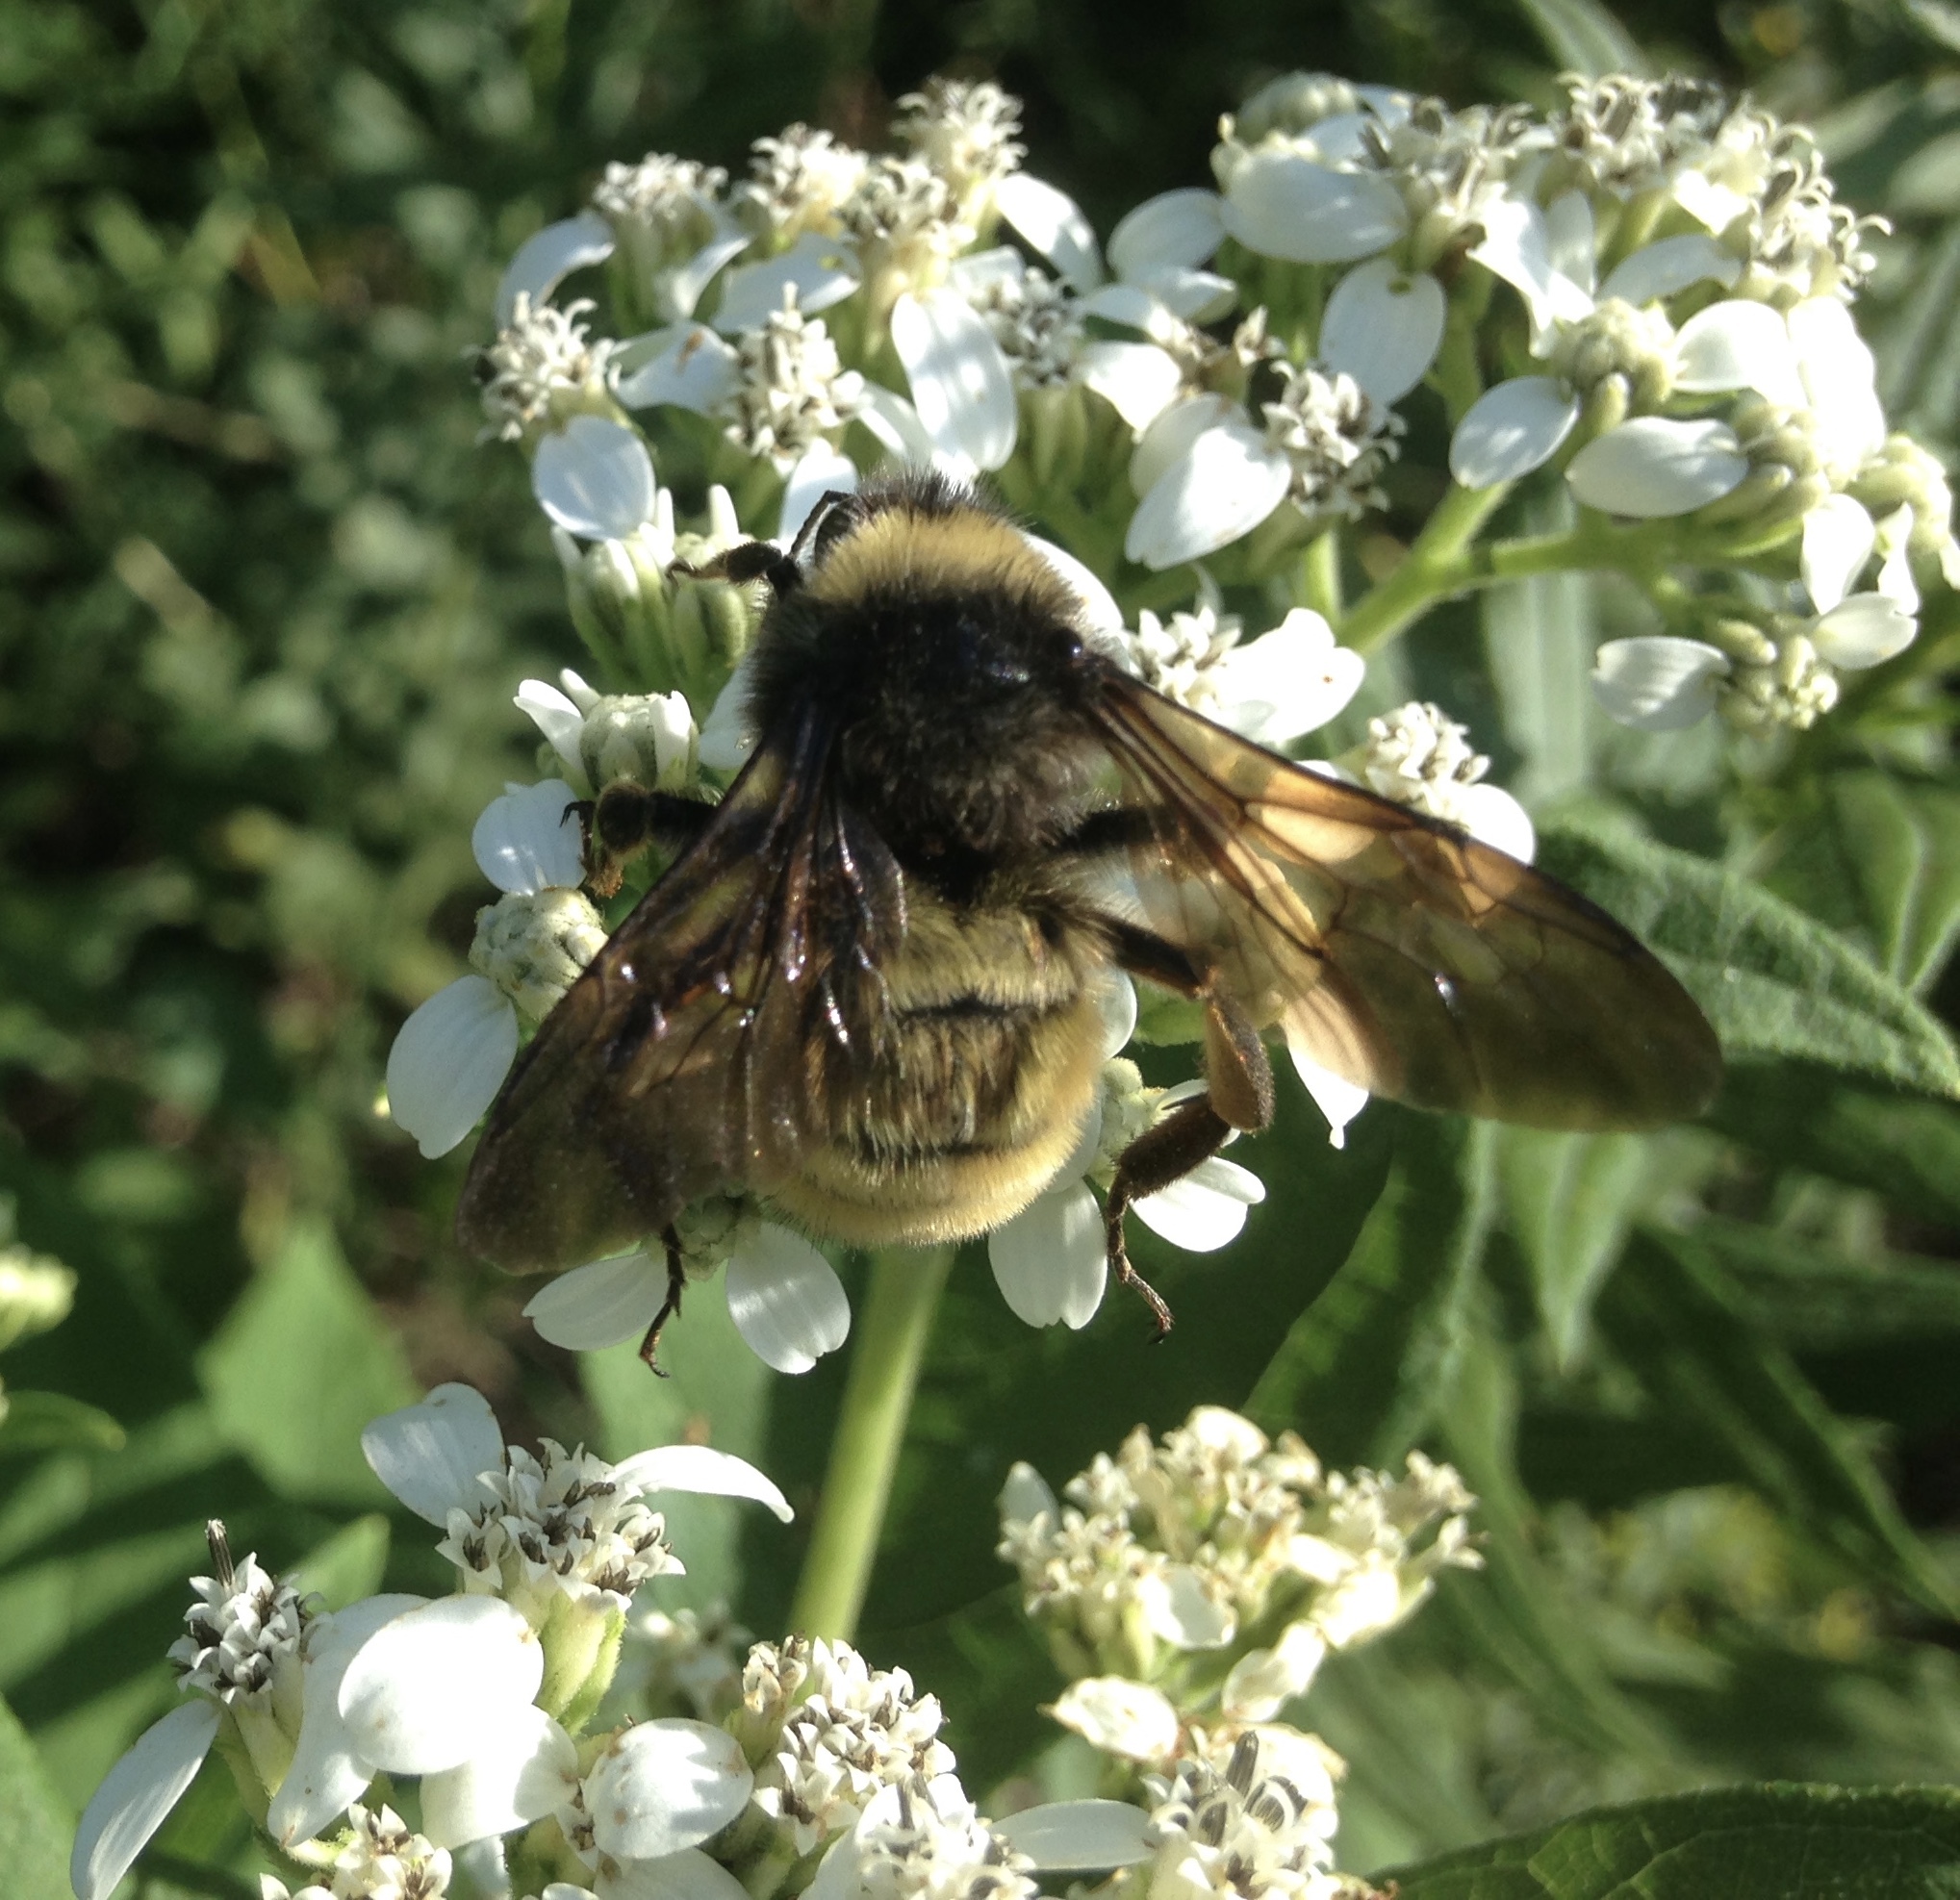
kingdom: Animalia
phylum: Arthropoda
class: Insecta
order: Hymenoptera
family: Apidae
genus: Bombus
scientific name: Bombus pensylvanicus
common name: Bumble bee
